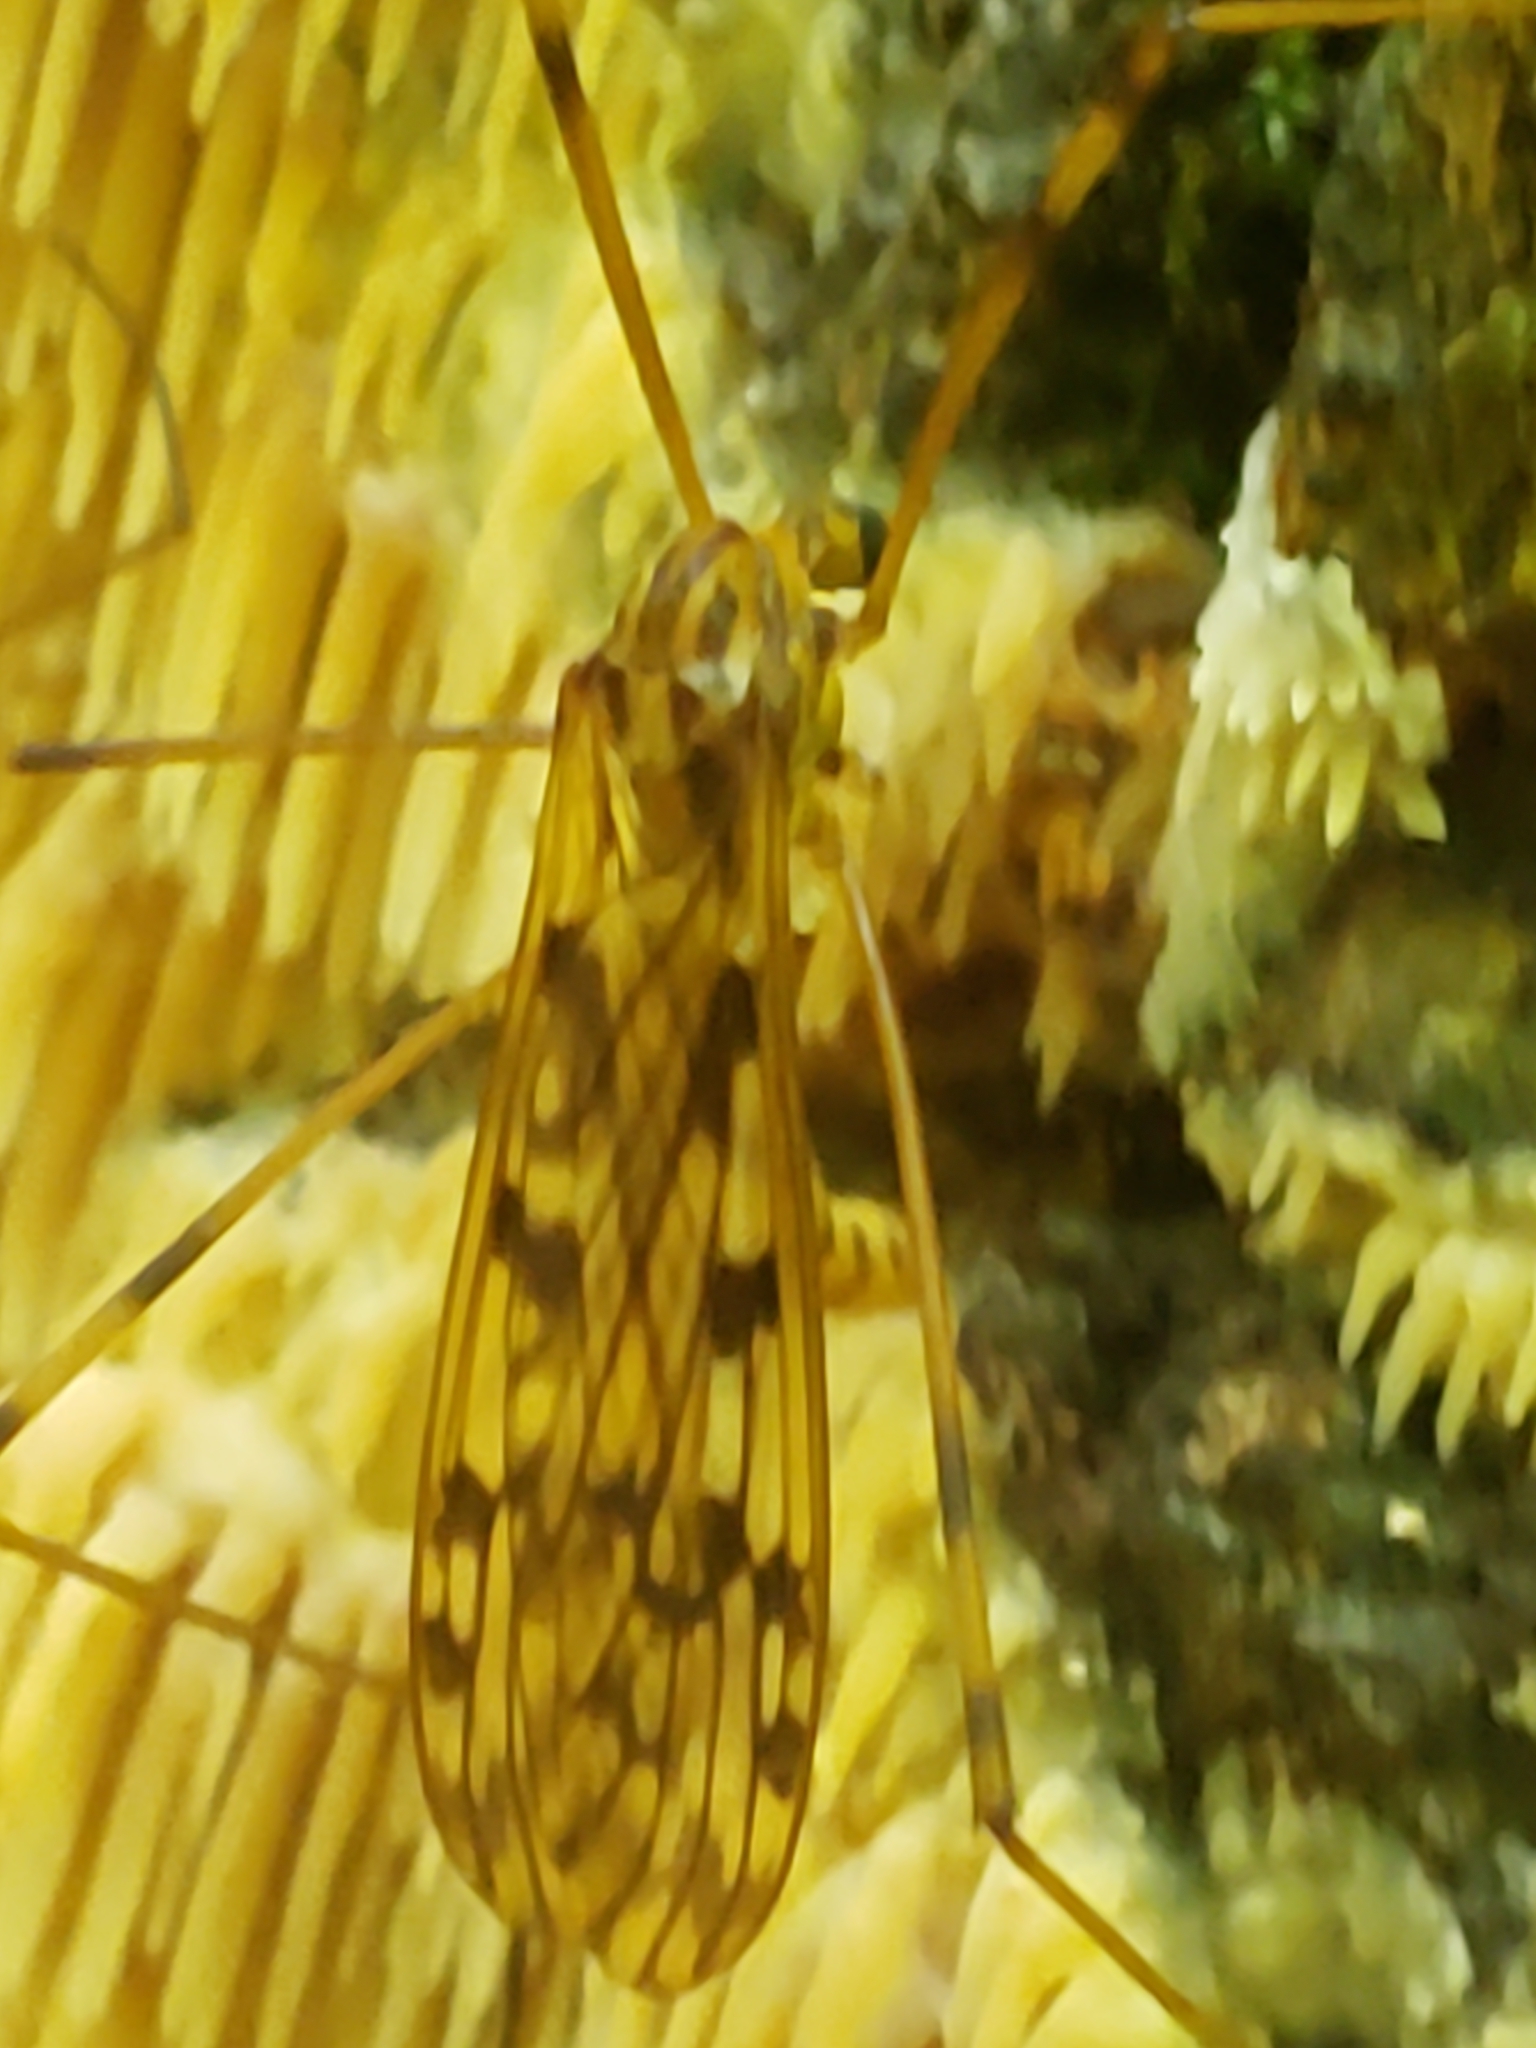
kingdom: Animalia
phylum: Arthropoda
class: Insecta
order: Diptera
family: Limoniidae
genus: Limonia
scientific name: Limonia cinctipes
